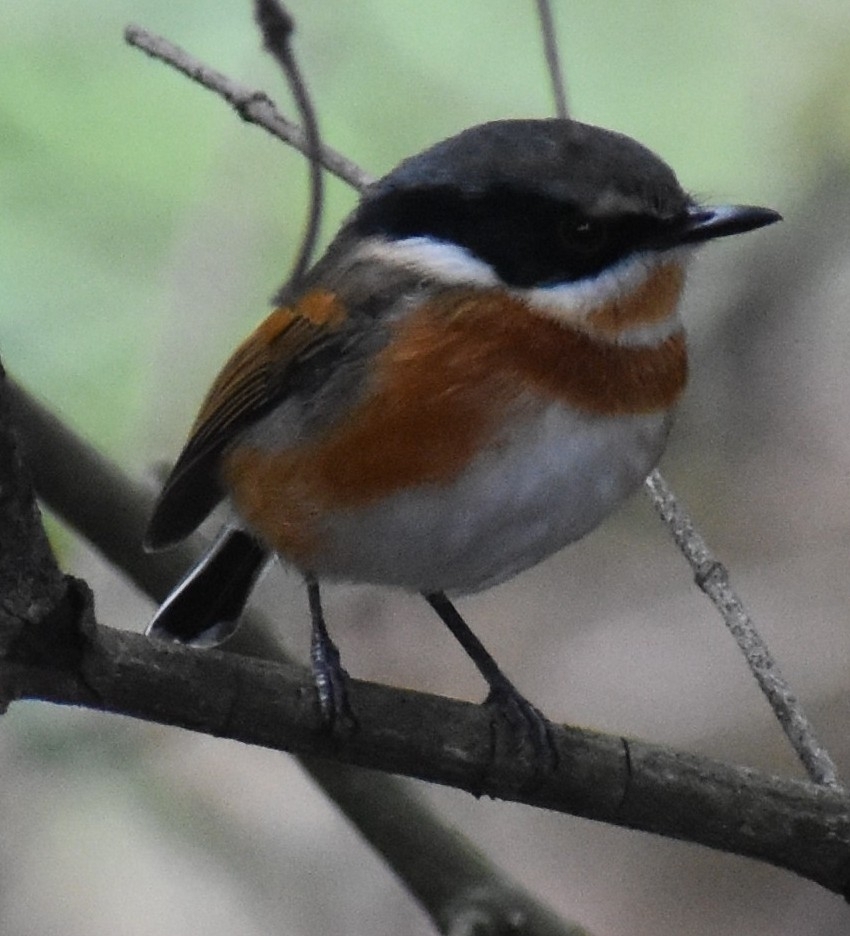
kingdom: Animalia
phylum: Chordata
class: Aves
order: Passeriformes
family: Platysteiridae
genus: Batis
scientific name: Batis capensis
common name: Cape batis
